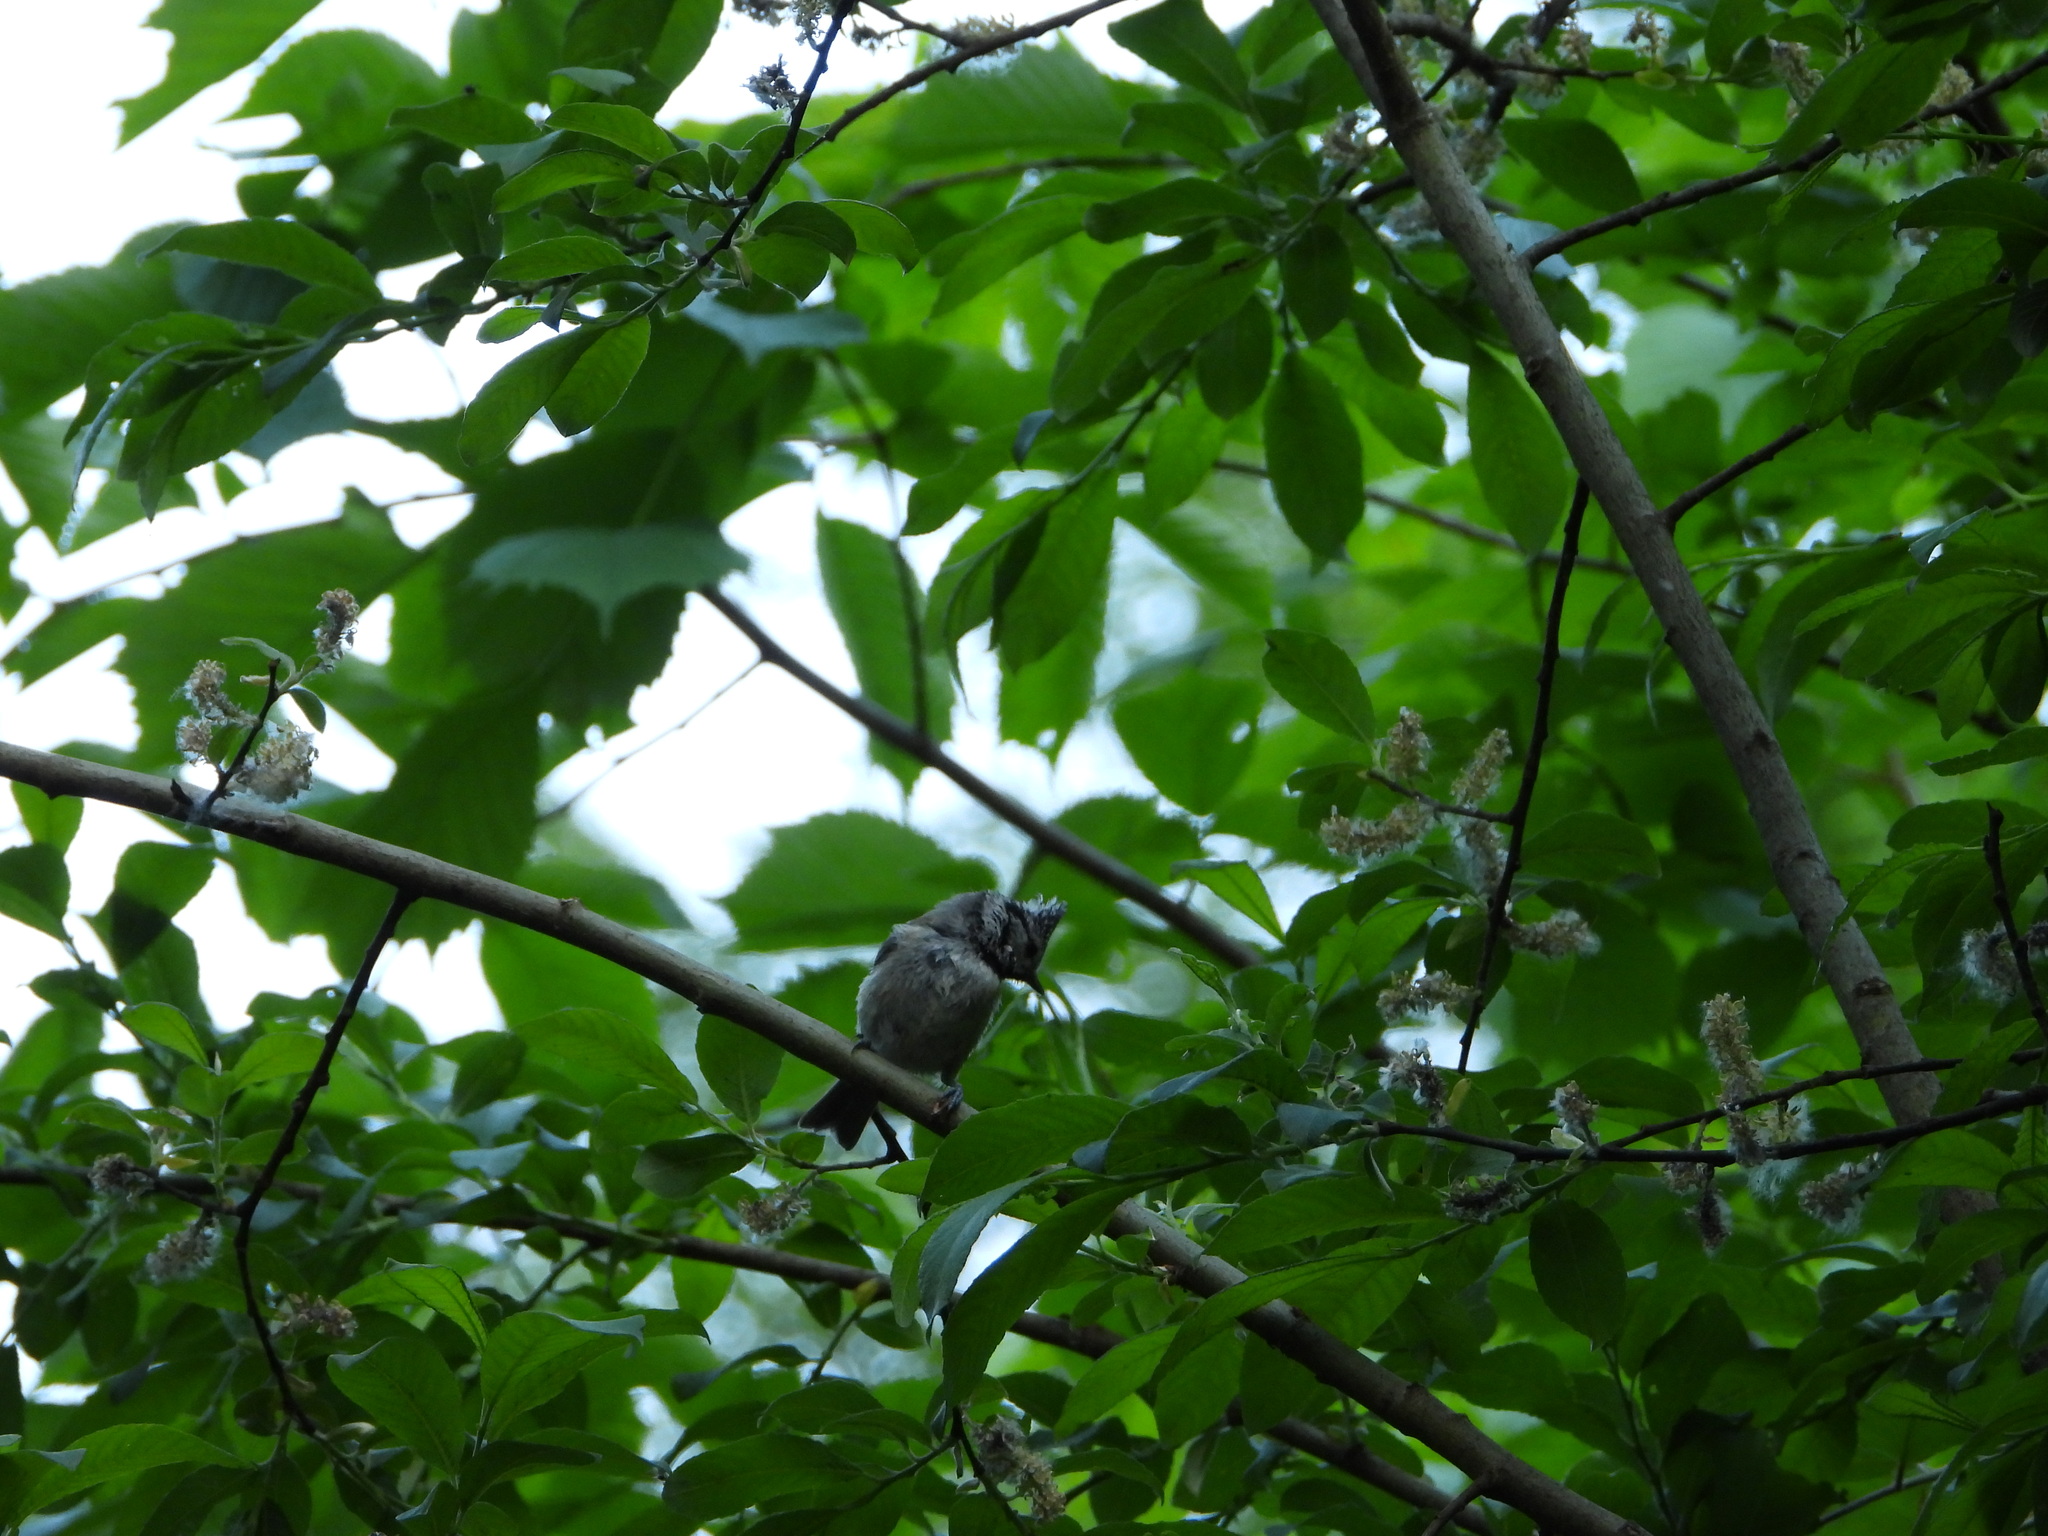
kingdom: Animalia
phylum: Chordata
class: Aves
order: Passeriformes
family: Paridae
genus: Lophophanes
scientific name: Lophophanes cristatus
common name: European crested tit
